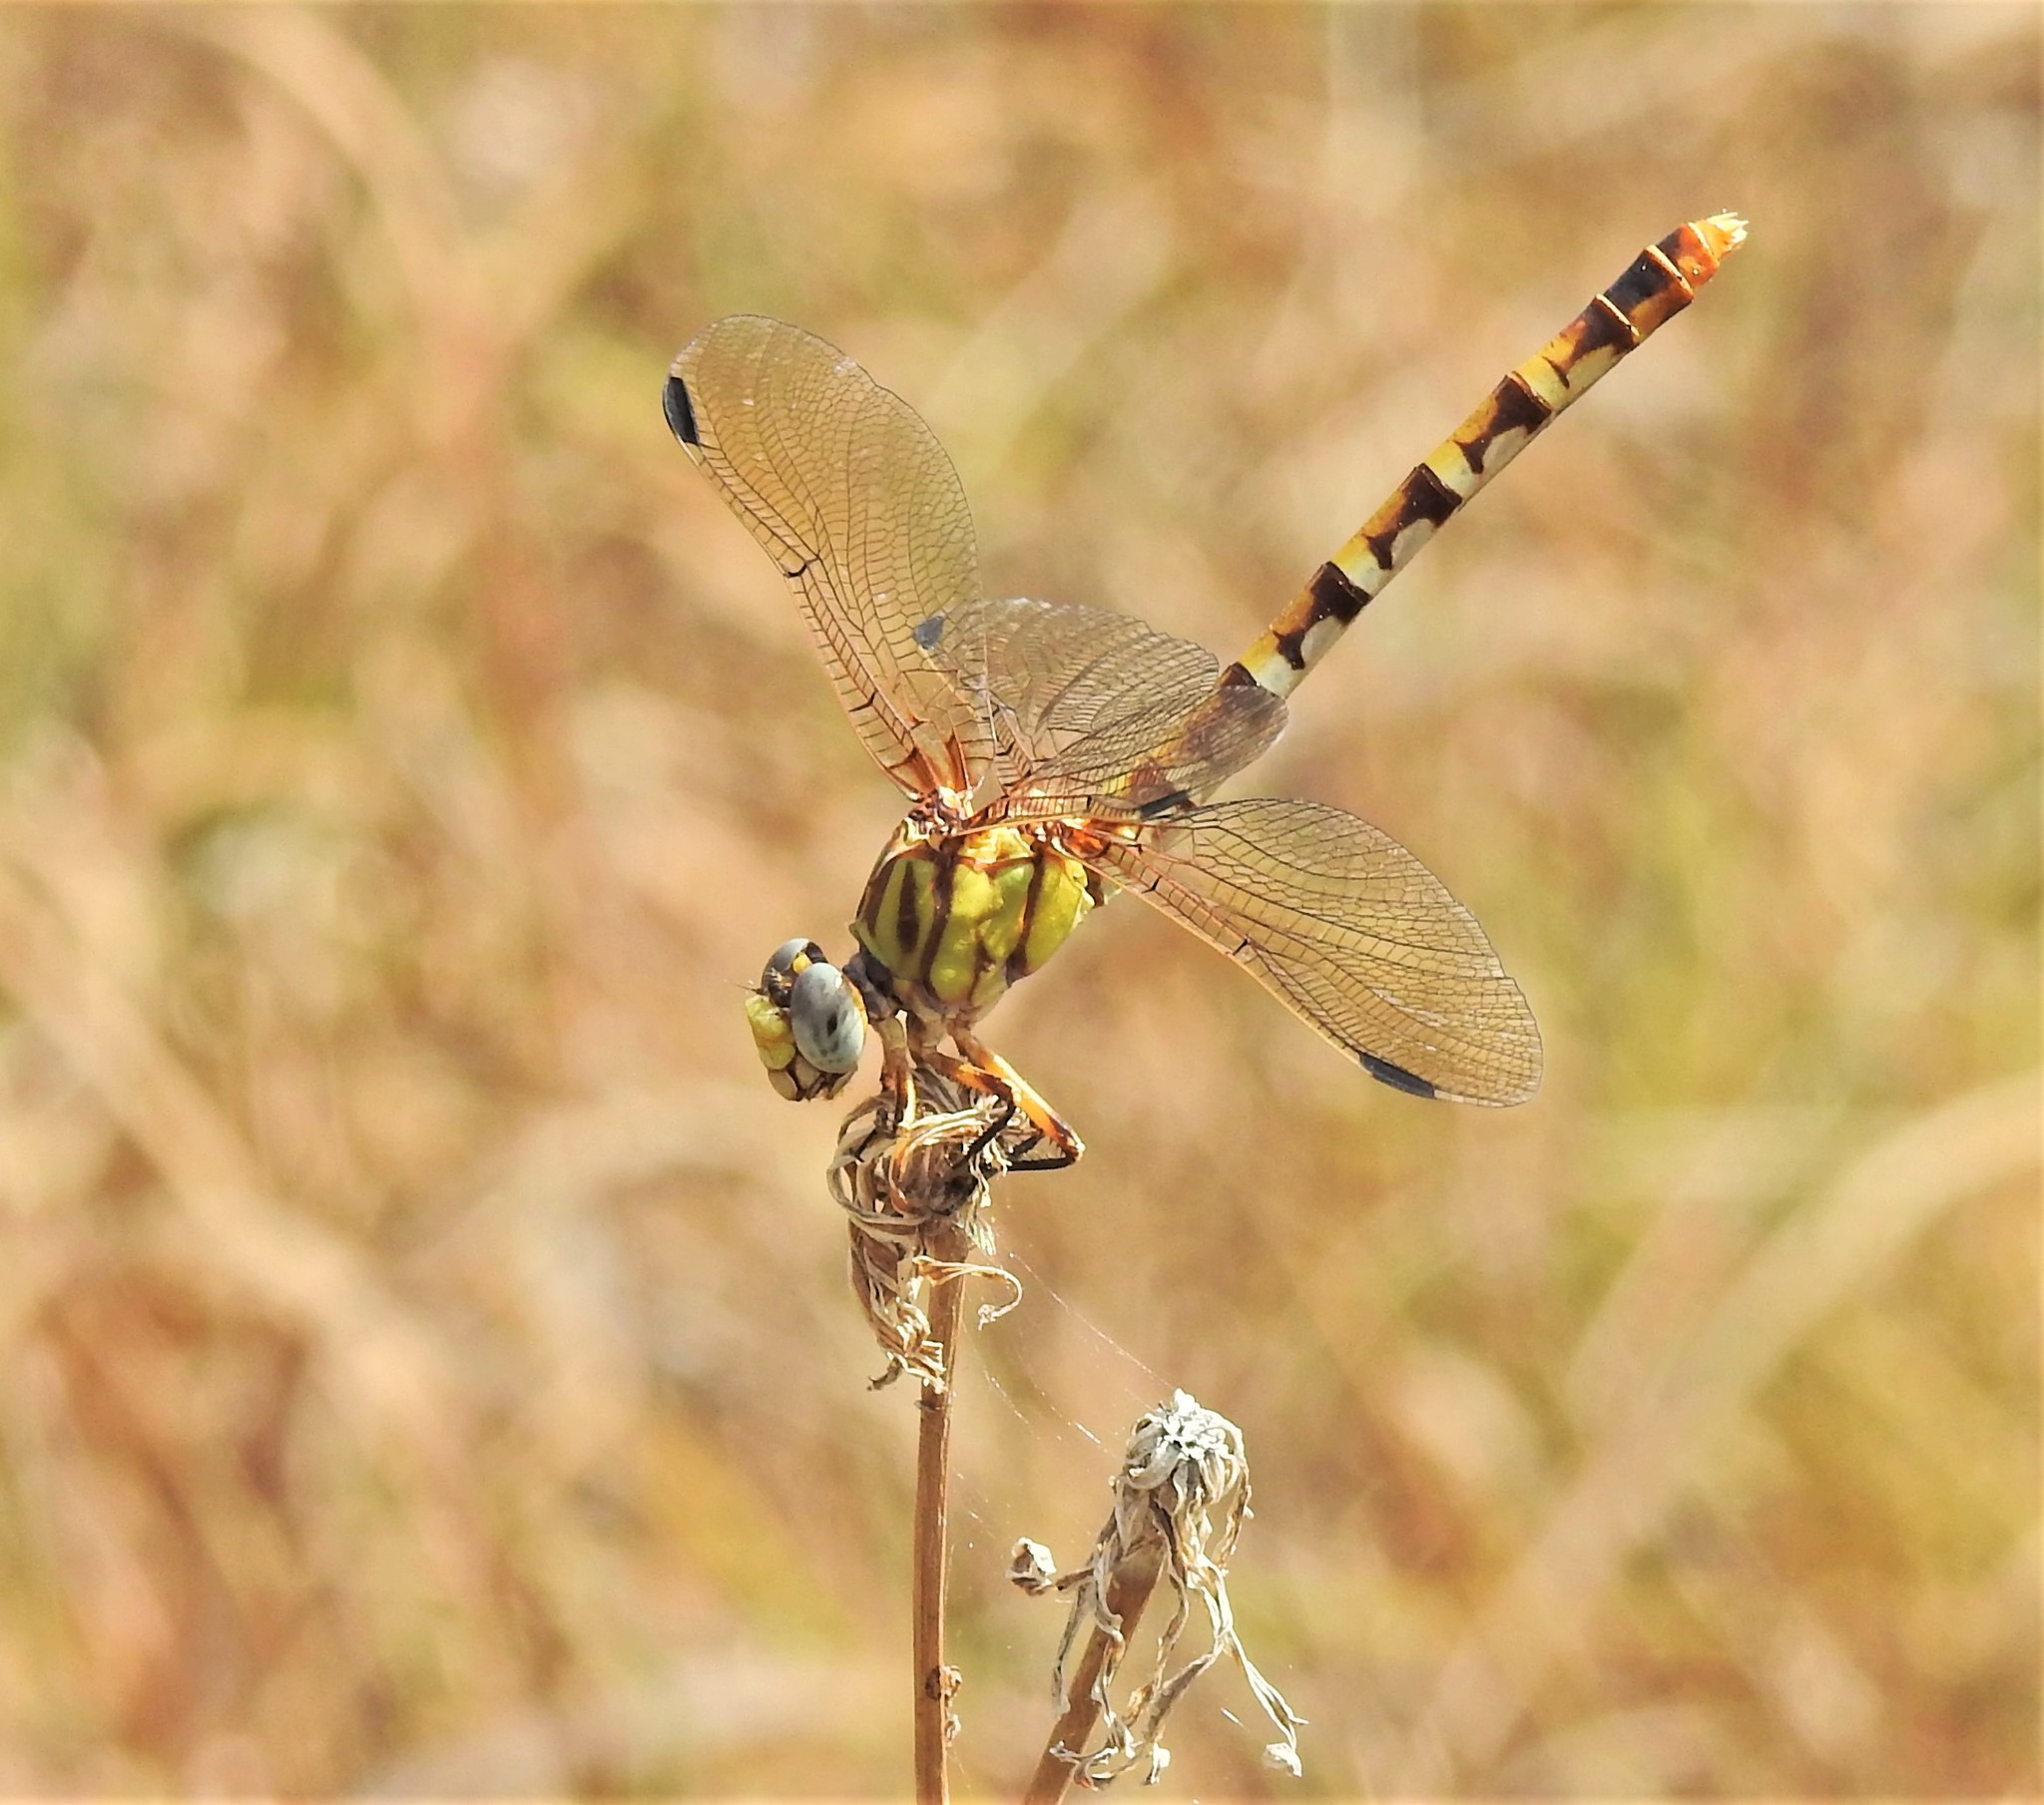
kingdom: Animalia
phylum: Arthropoda
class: Insecta
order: Odonata
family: Gomphidae
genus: Erpetogomphus
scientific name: Erpetogomphus designatus
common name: Eastern ringtail
